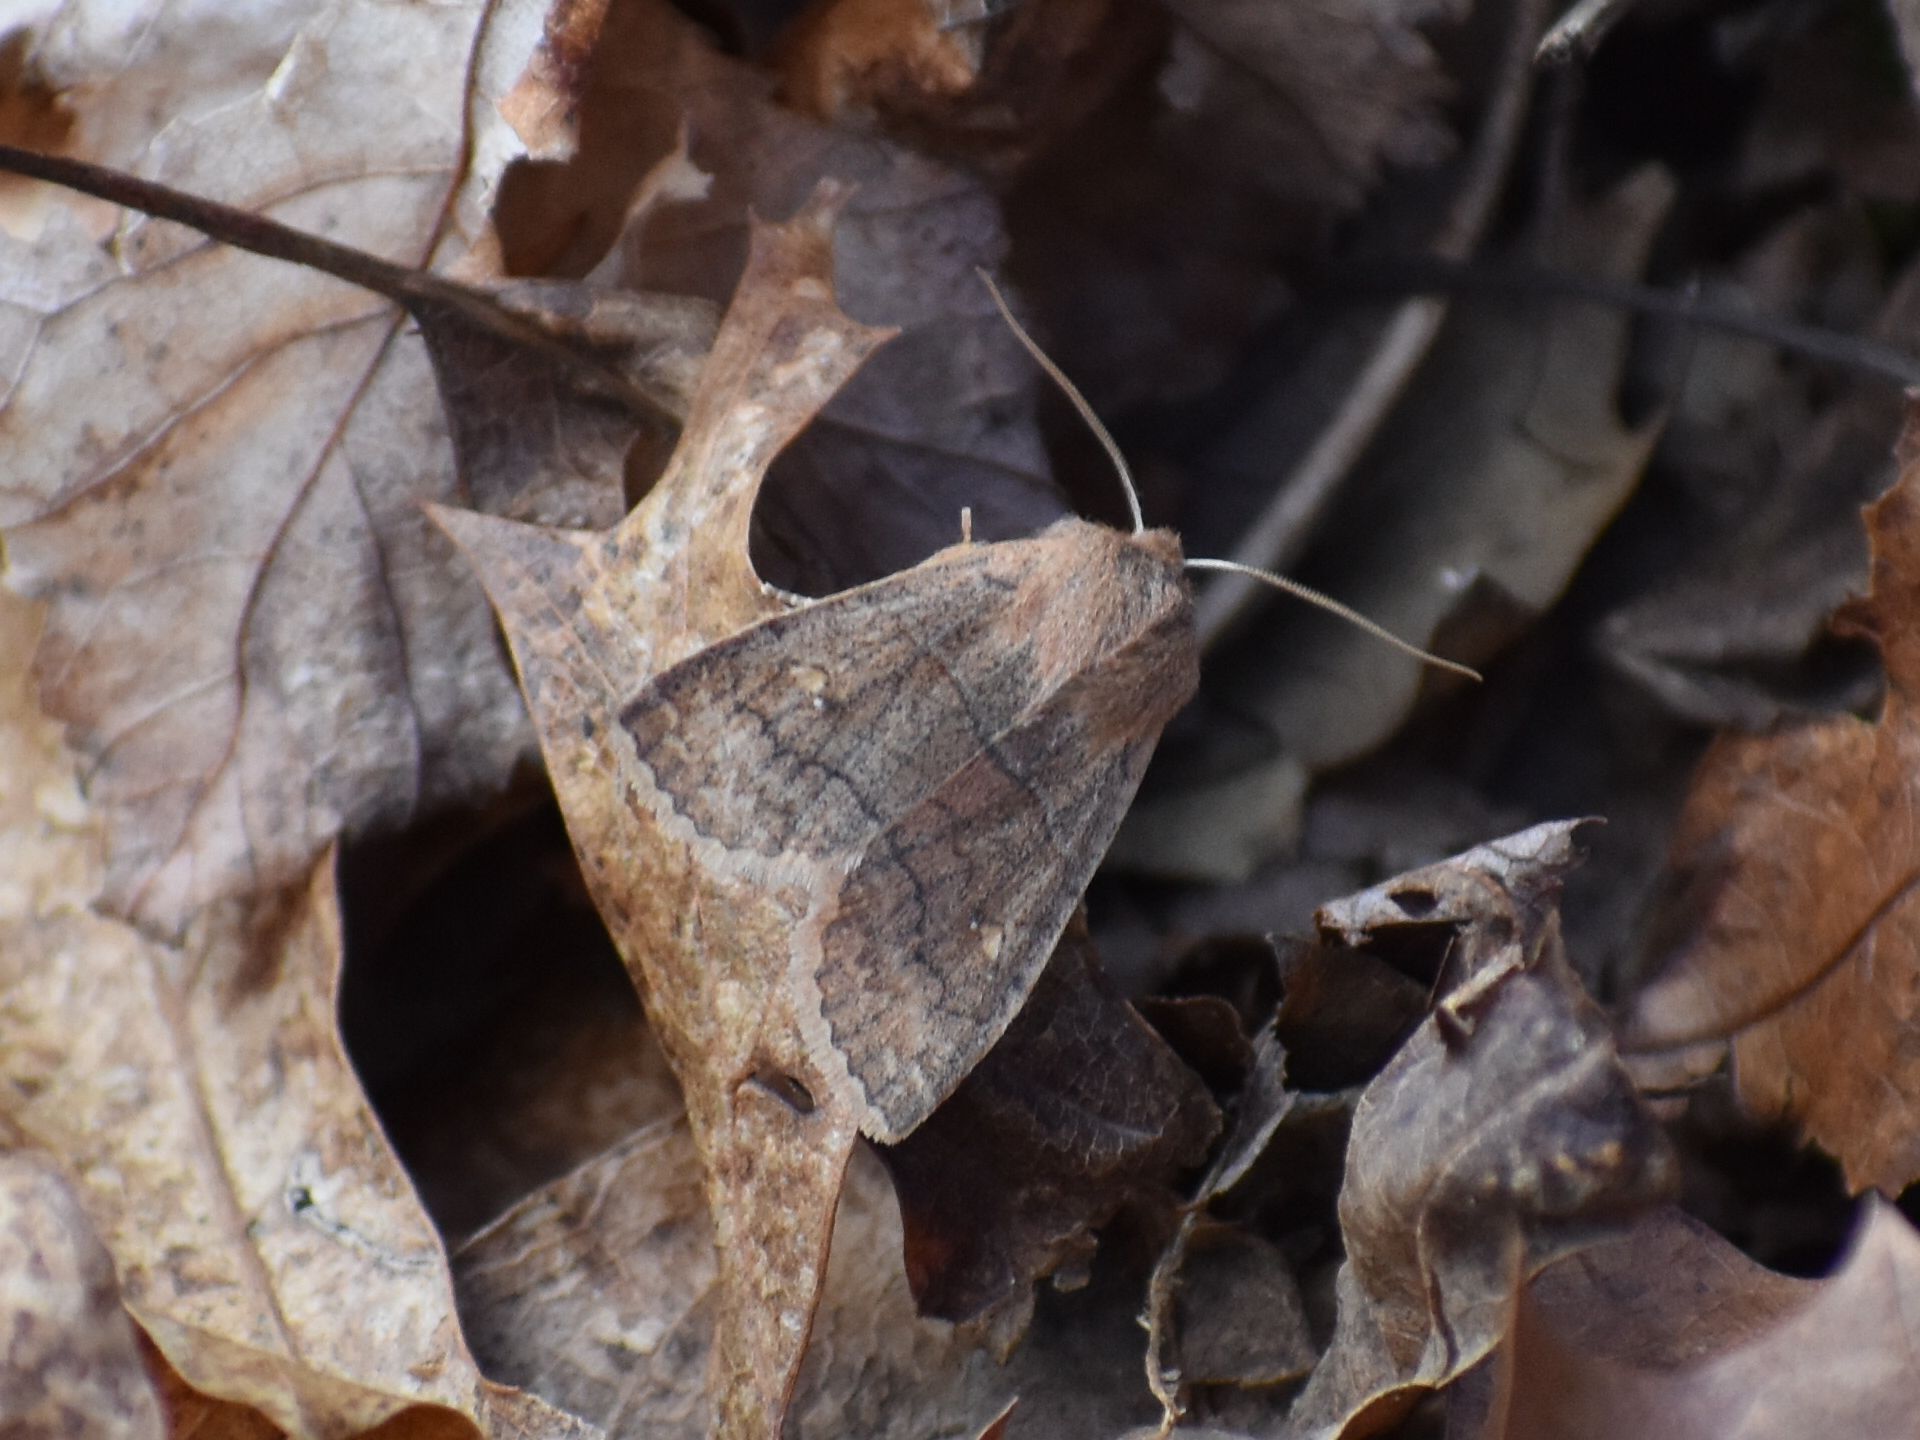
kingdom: Animalia
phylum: Arthropoda
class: Insecta
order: Lepidoptera
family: Noctuidae
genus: Eupsilia
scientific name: Eupsilia vinulenta
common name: Straight-toothed sallow
